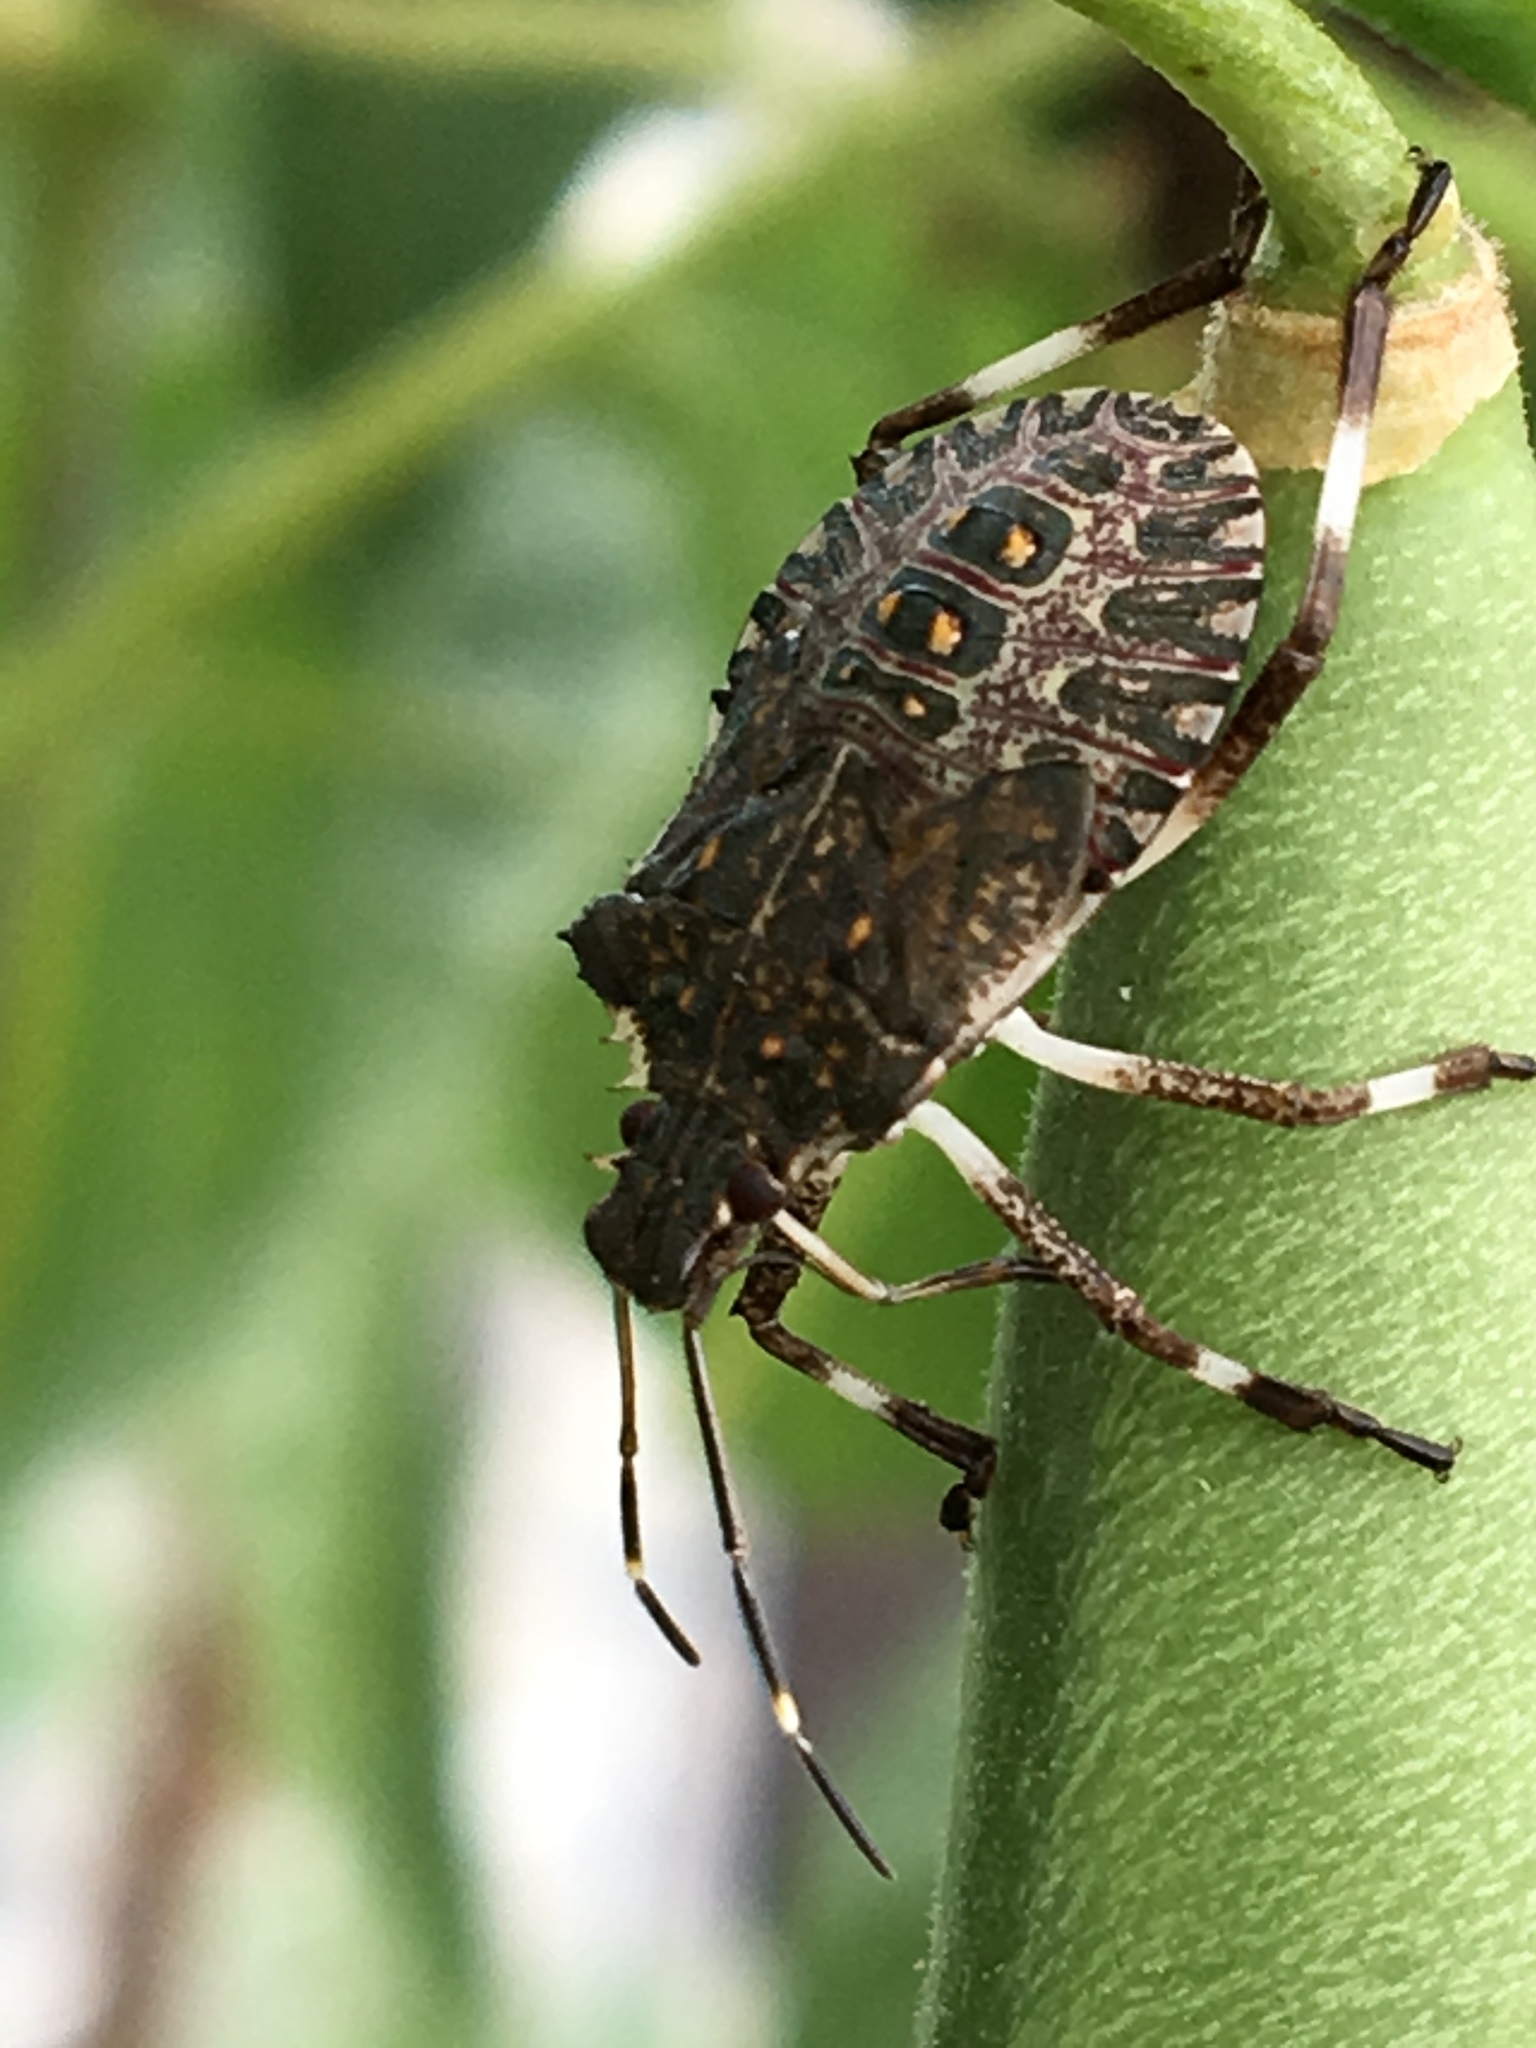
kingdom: Animalia
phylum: Arthropoda
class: Insecta
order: Hemiptera
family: Pentatomidae
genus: Halyomorpha
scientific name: Halyomorpha halys
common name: Brown marmorated stink bug
